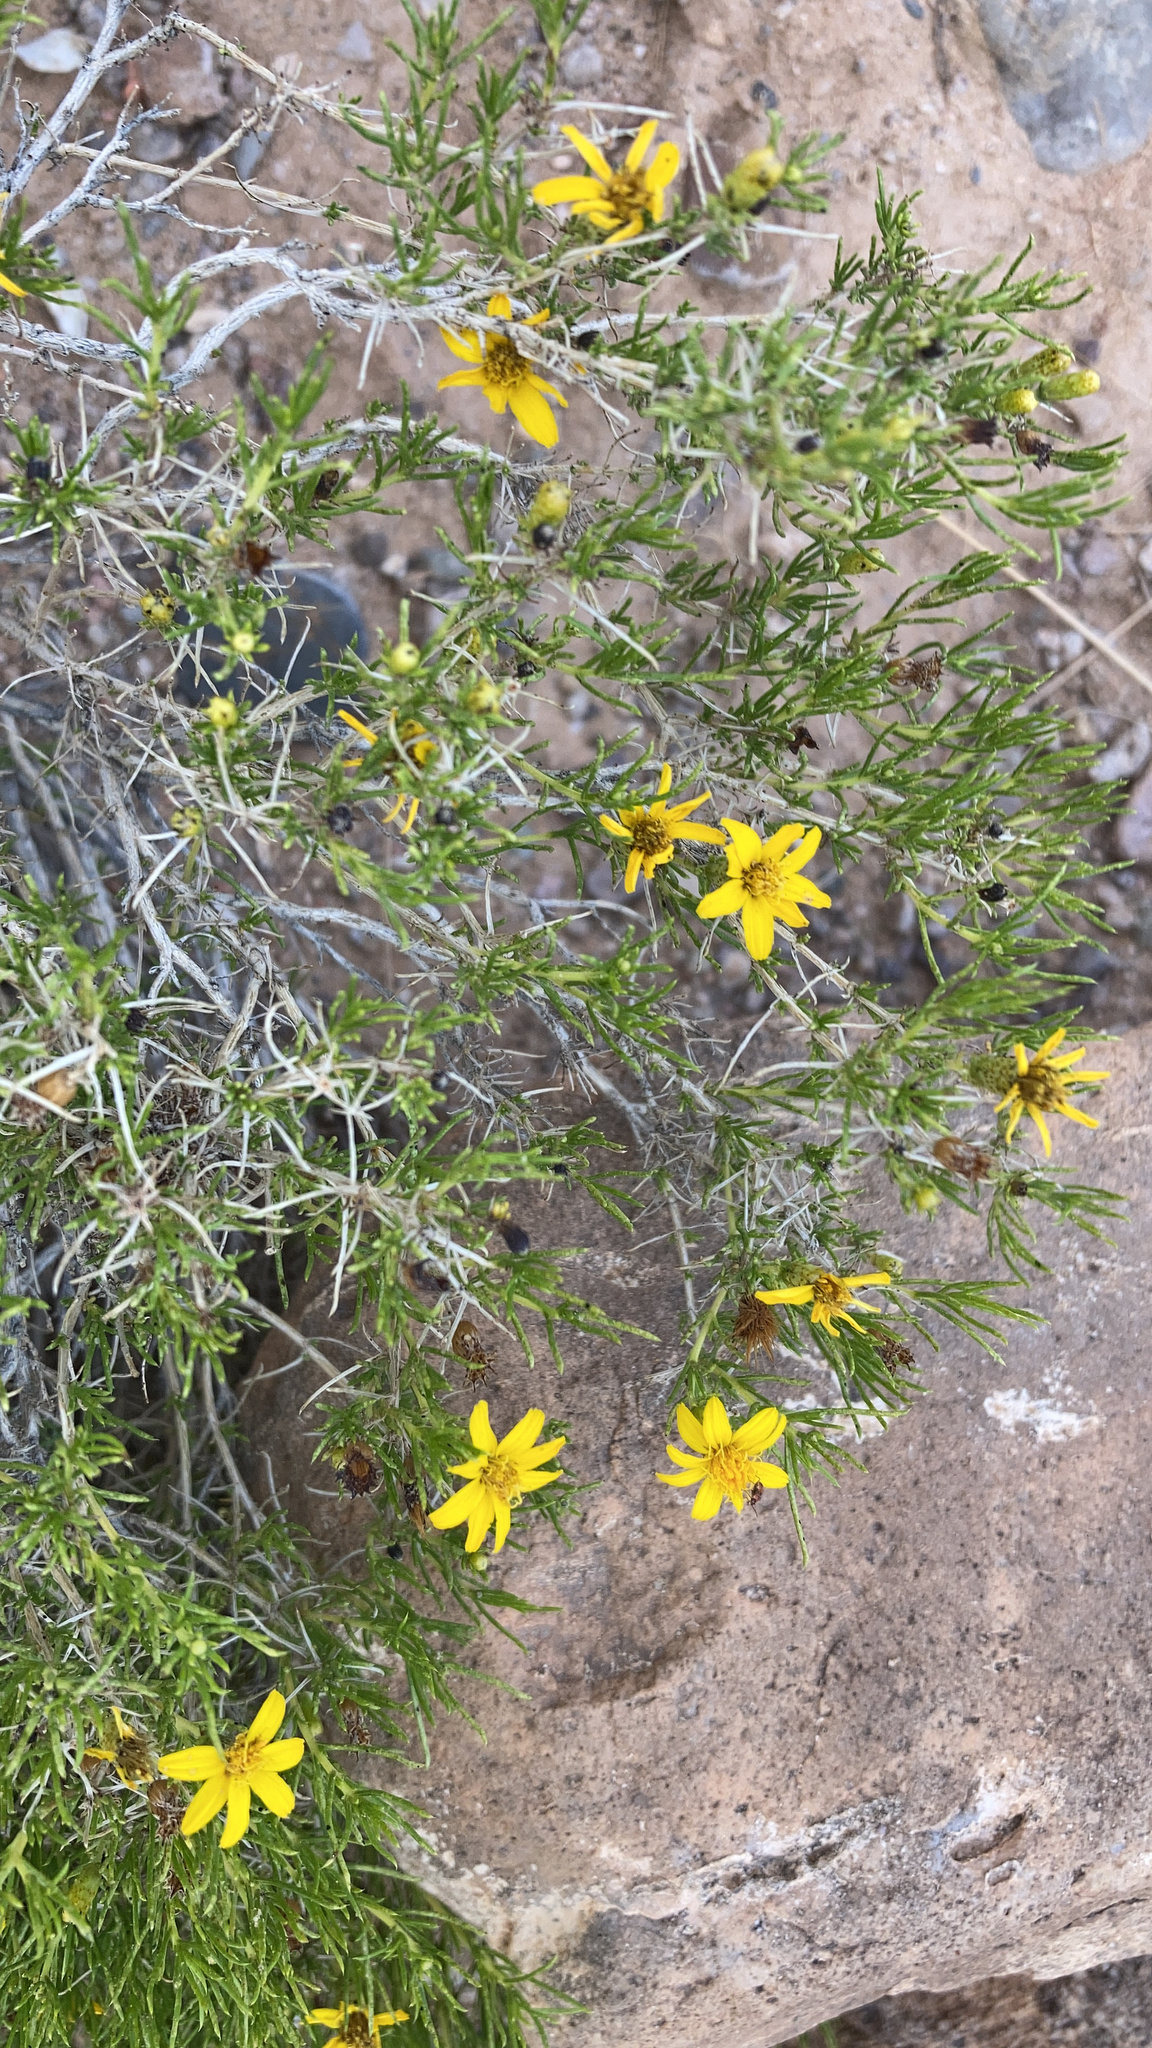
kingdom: Plantae
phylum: Tracheophyta
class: Magnoliopsida
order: Asterales
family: Asteraceae
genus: Thymophylla
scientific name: Thymophylla acerosa
